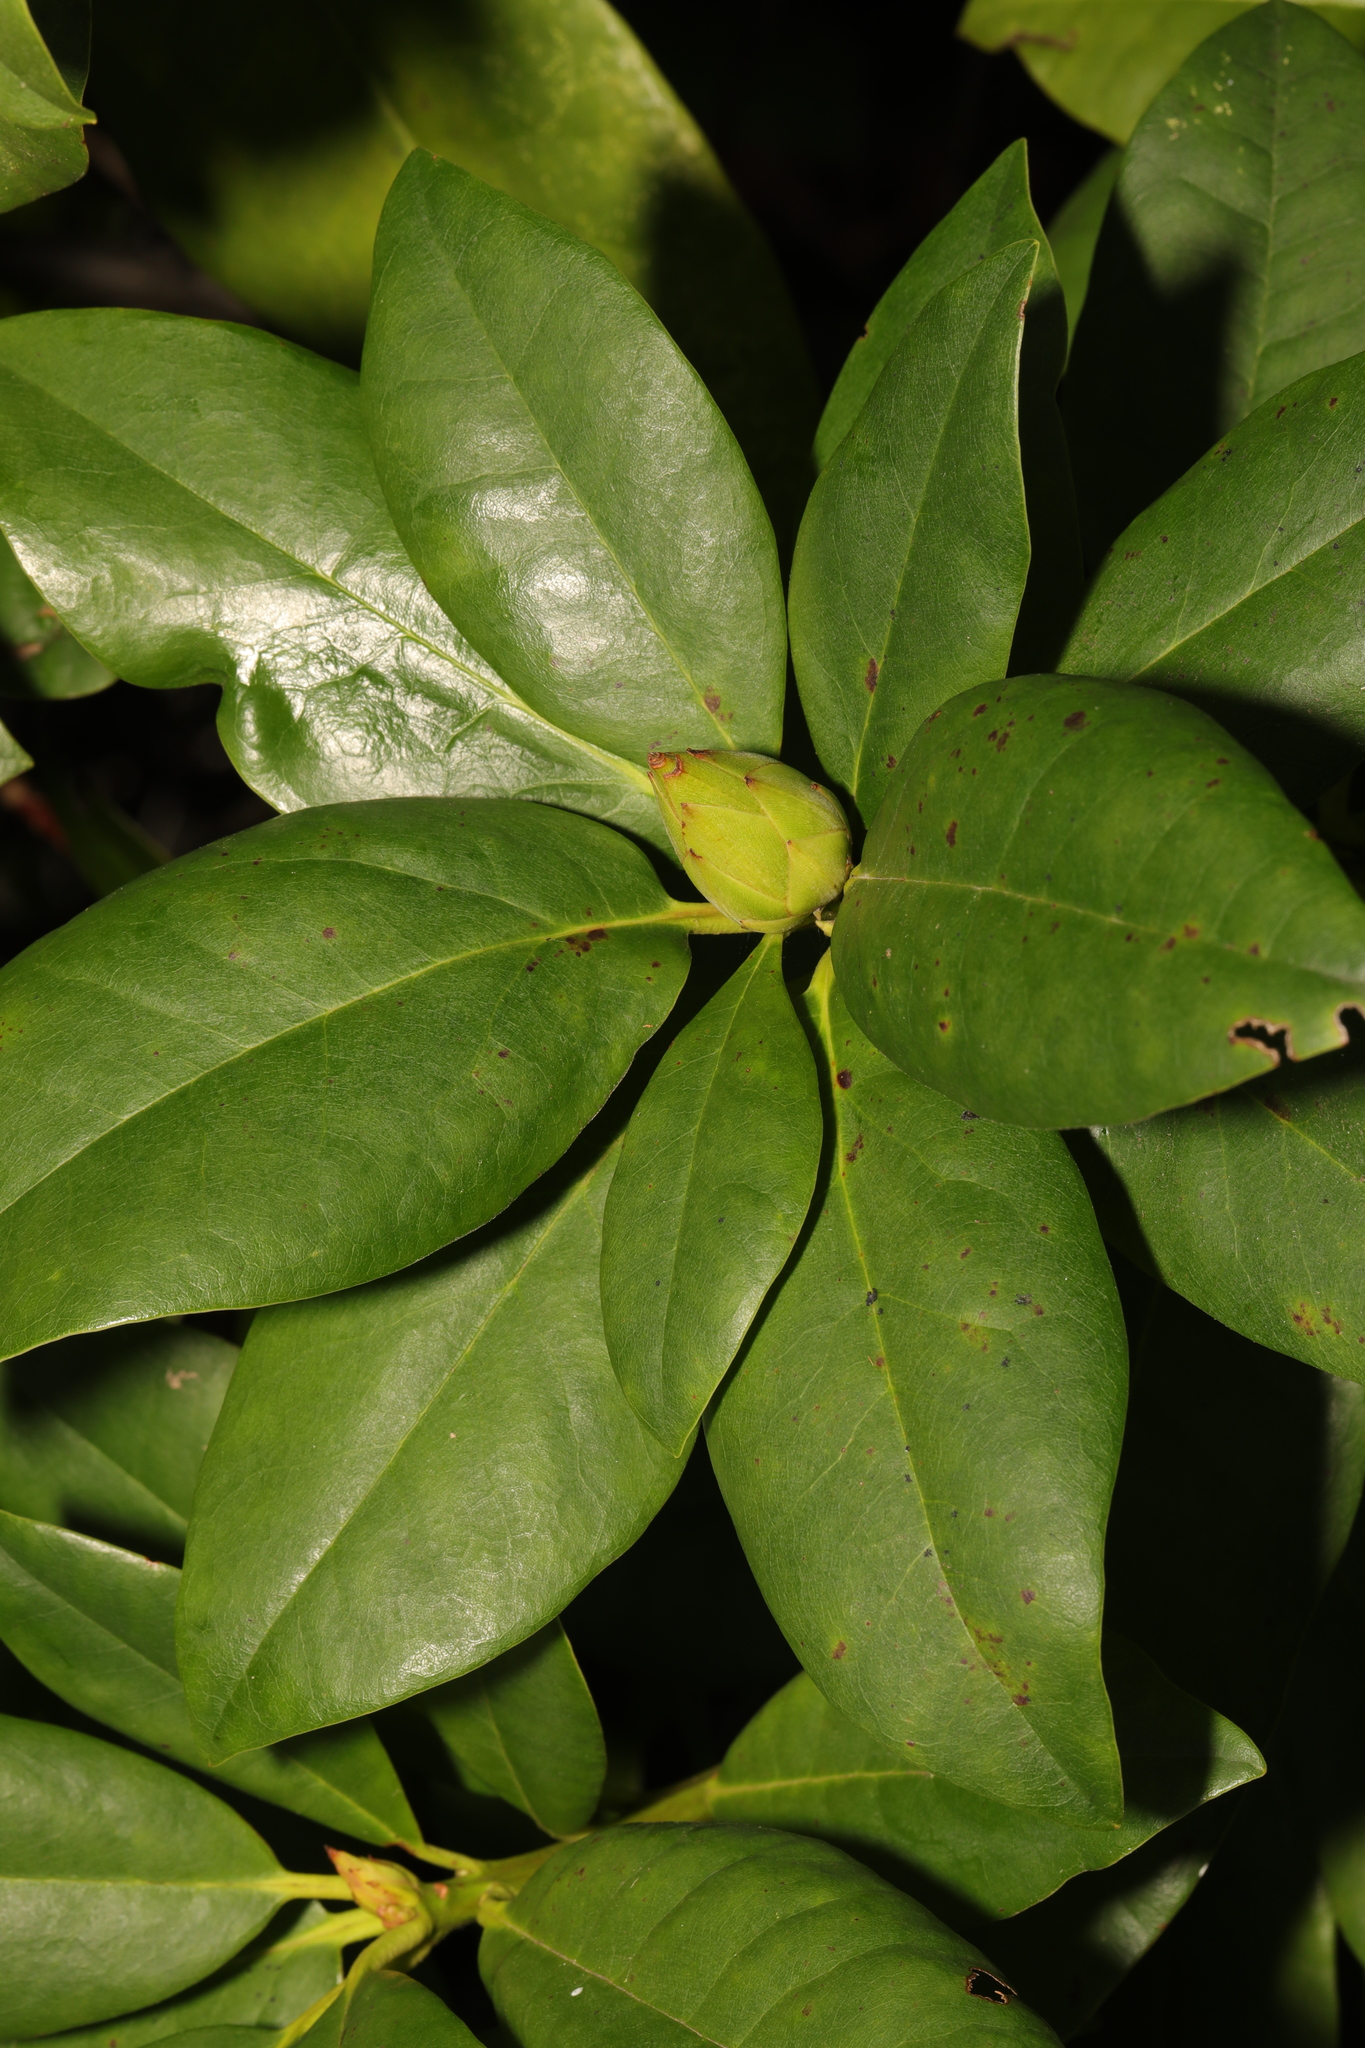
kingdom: Plantae
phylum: Tracheophyta
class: Magnoliopsida
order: Ericales
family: Ericaceae
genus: Rhododendron
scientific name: Rhododendron ponticum
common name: Rhododendron
